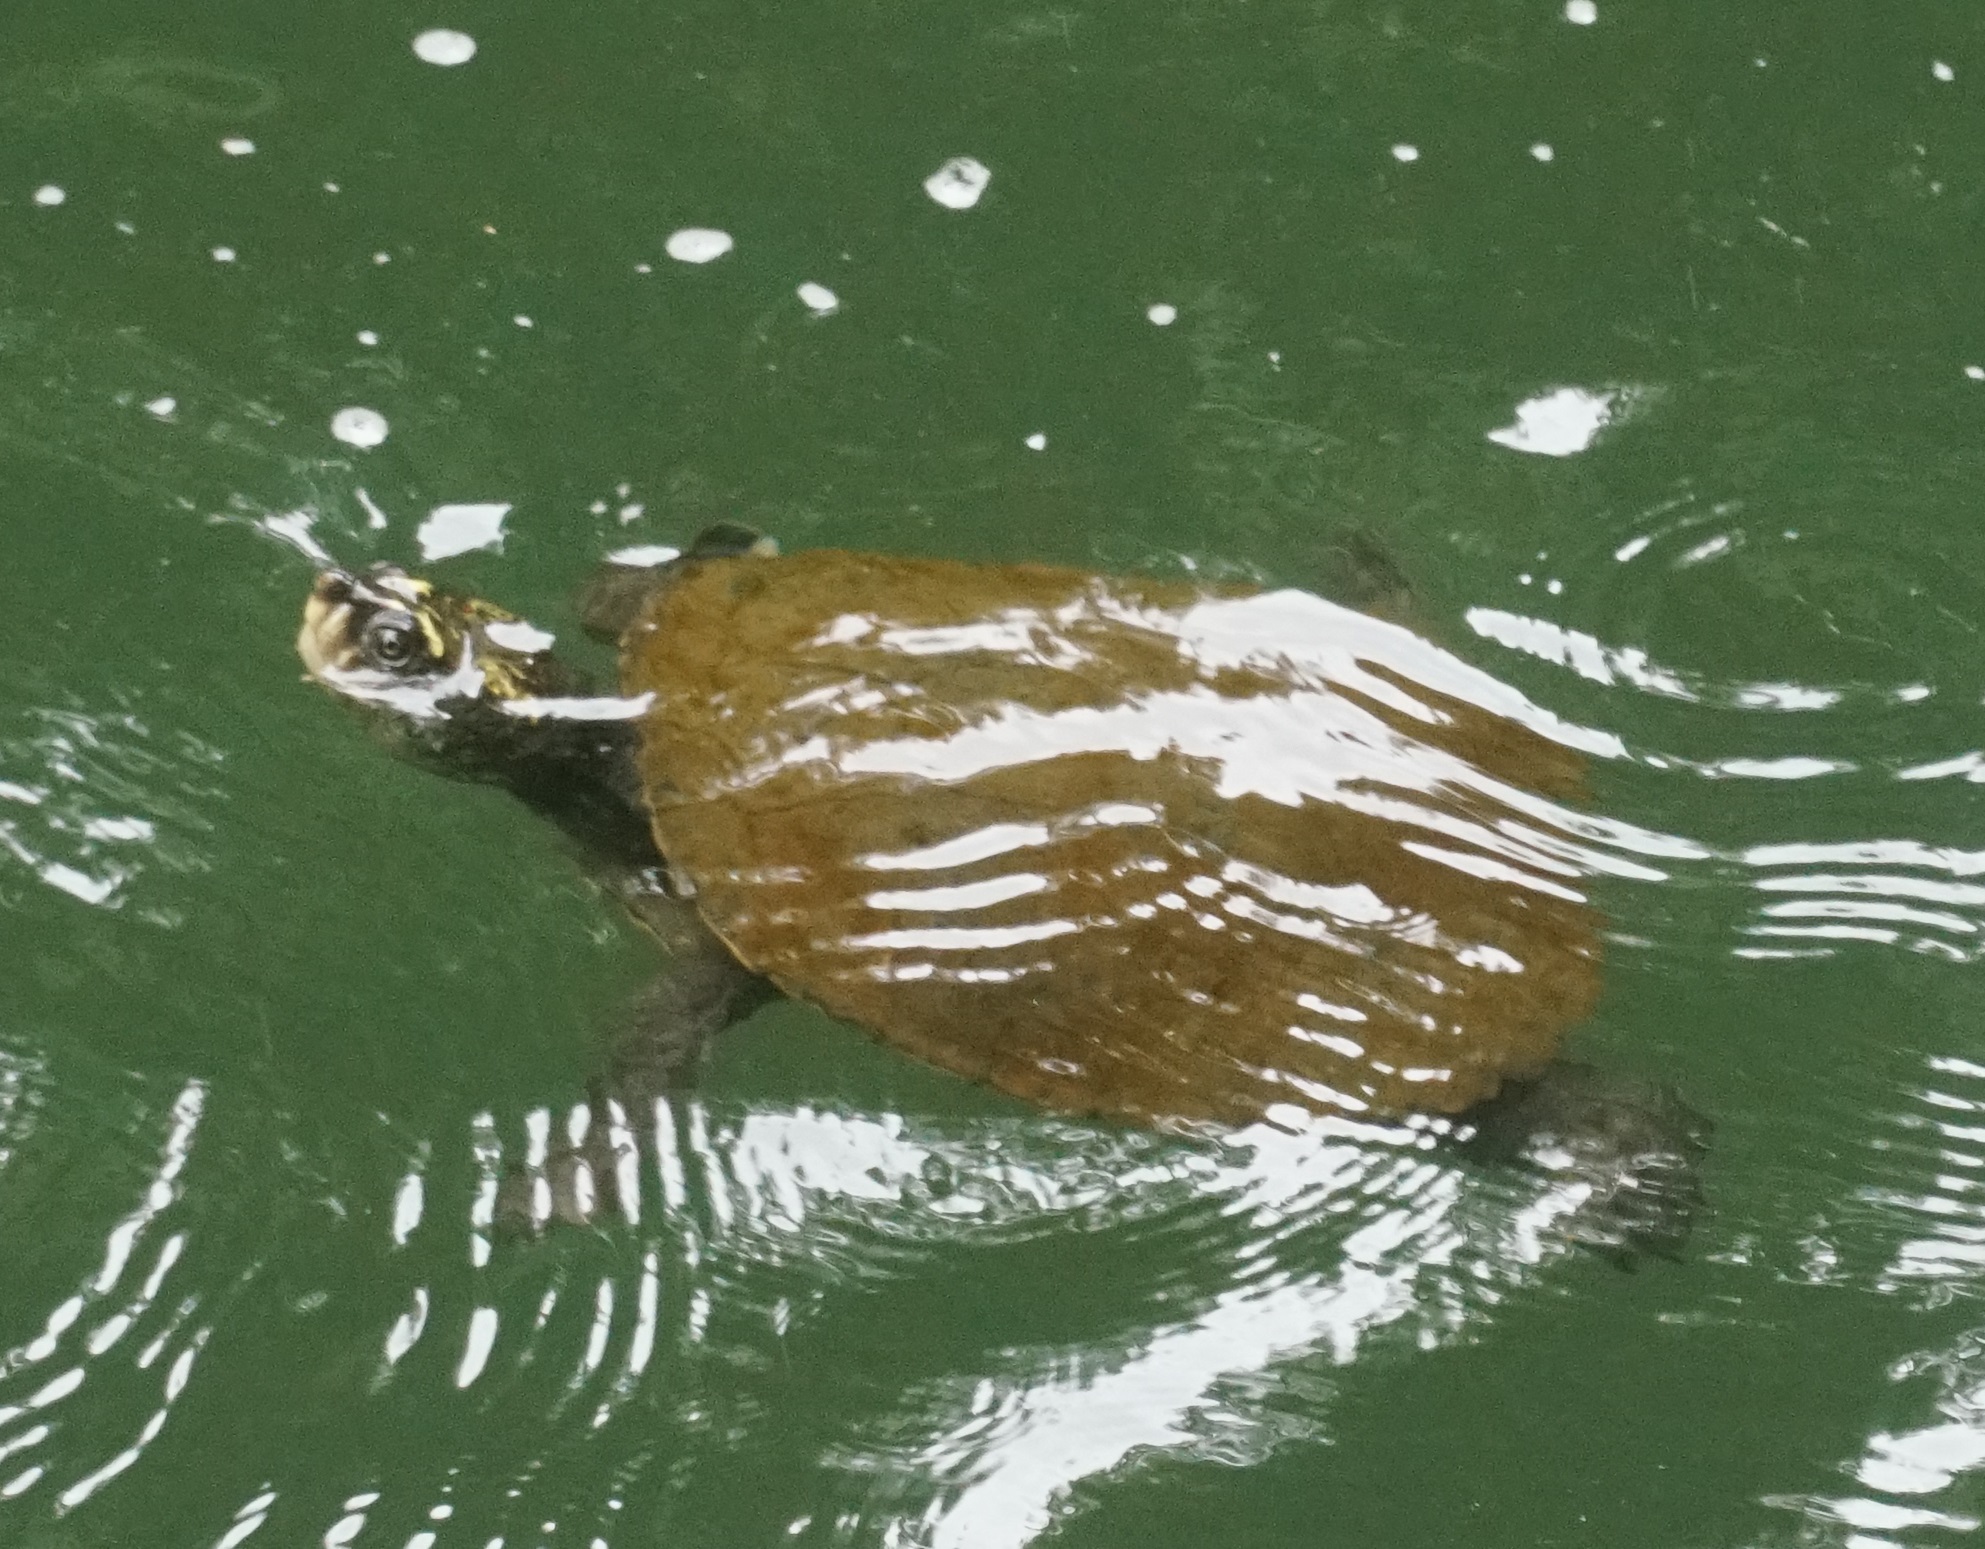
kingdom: Animalia
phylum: Chordata
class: Testudines
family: Chelidae
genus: Myuchelys
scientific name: Myuchelys latisternum
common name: Serrated snapping turtle
